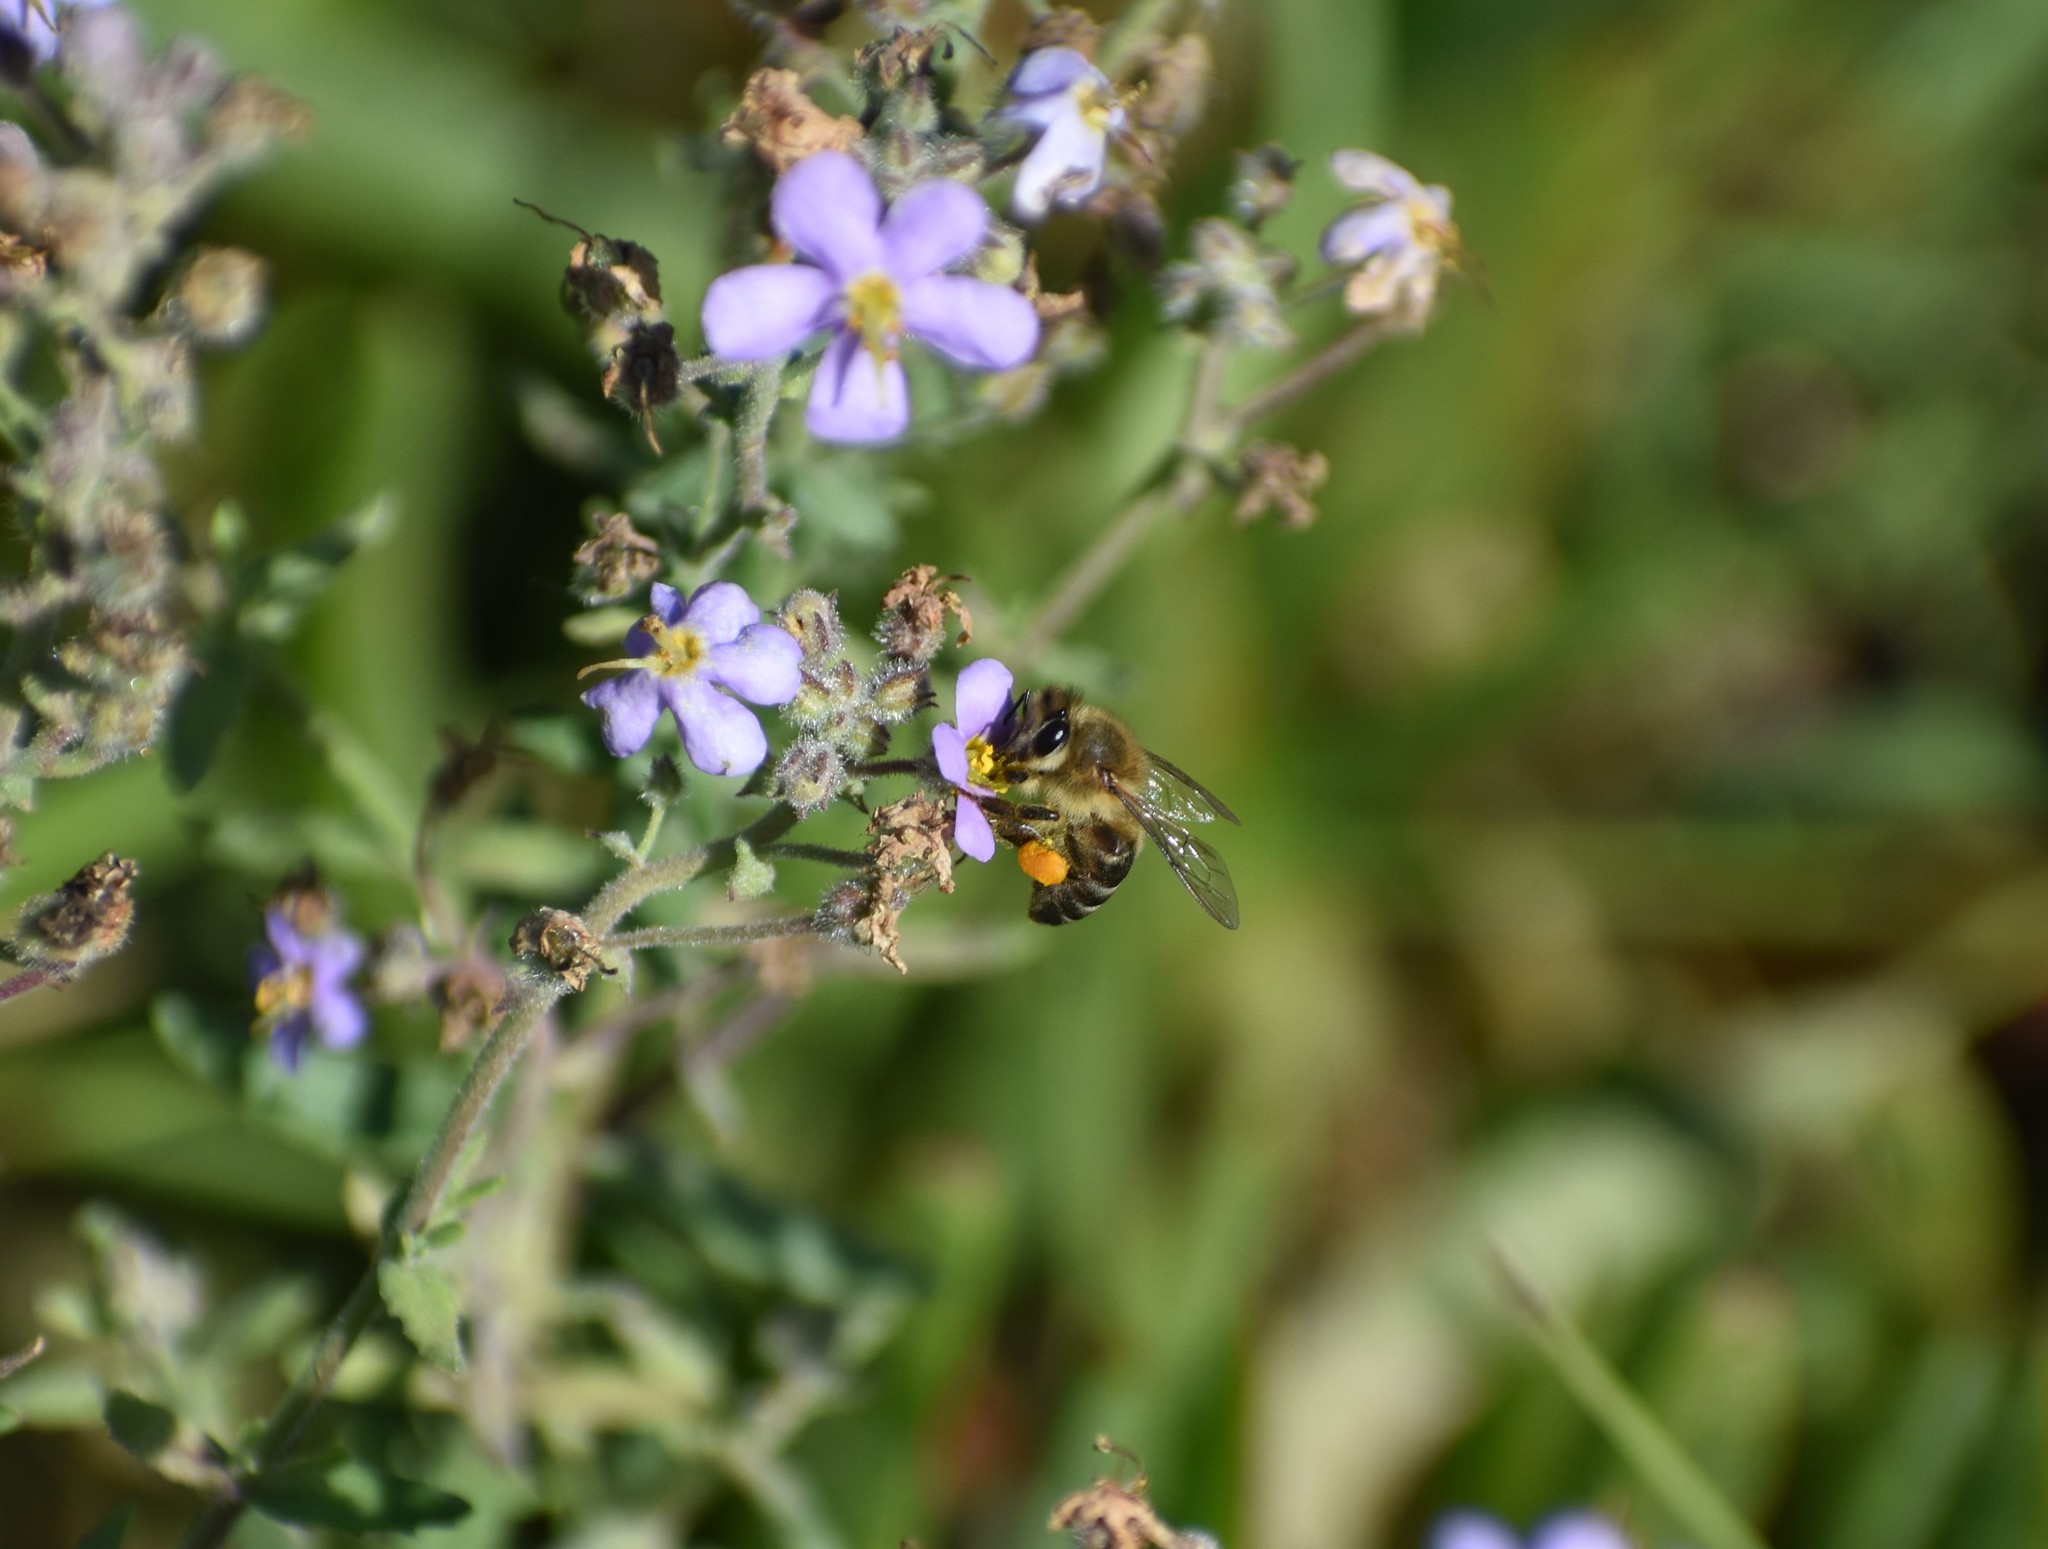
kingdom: Animalia
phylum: Arthropoda
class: Insecta
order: Hymenoptera
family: Apidae
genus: Apis
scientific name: Apis mellifera
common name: Honey bee
